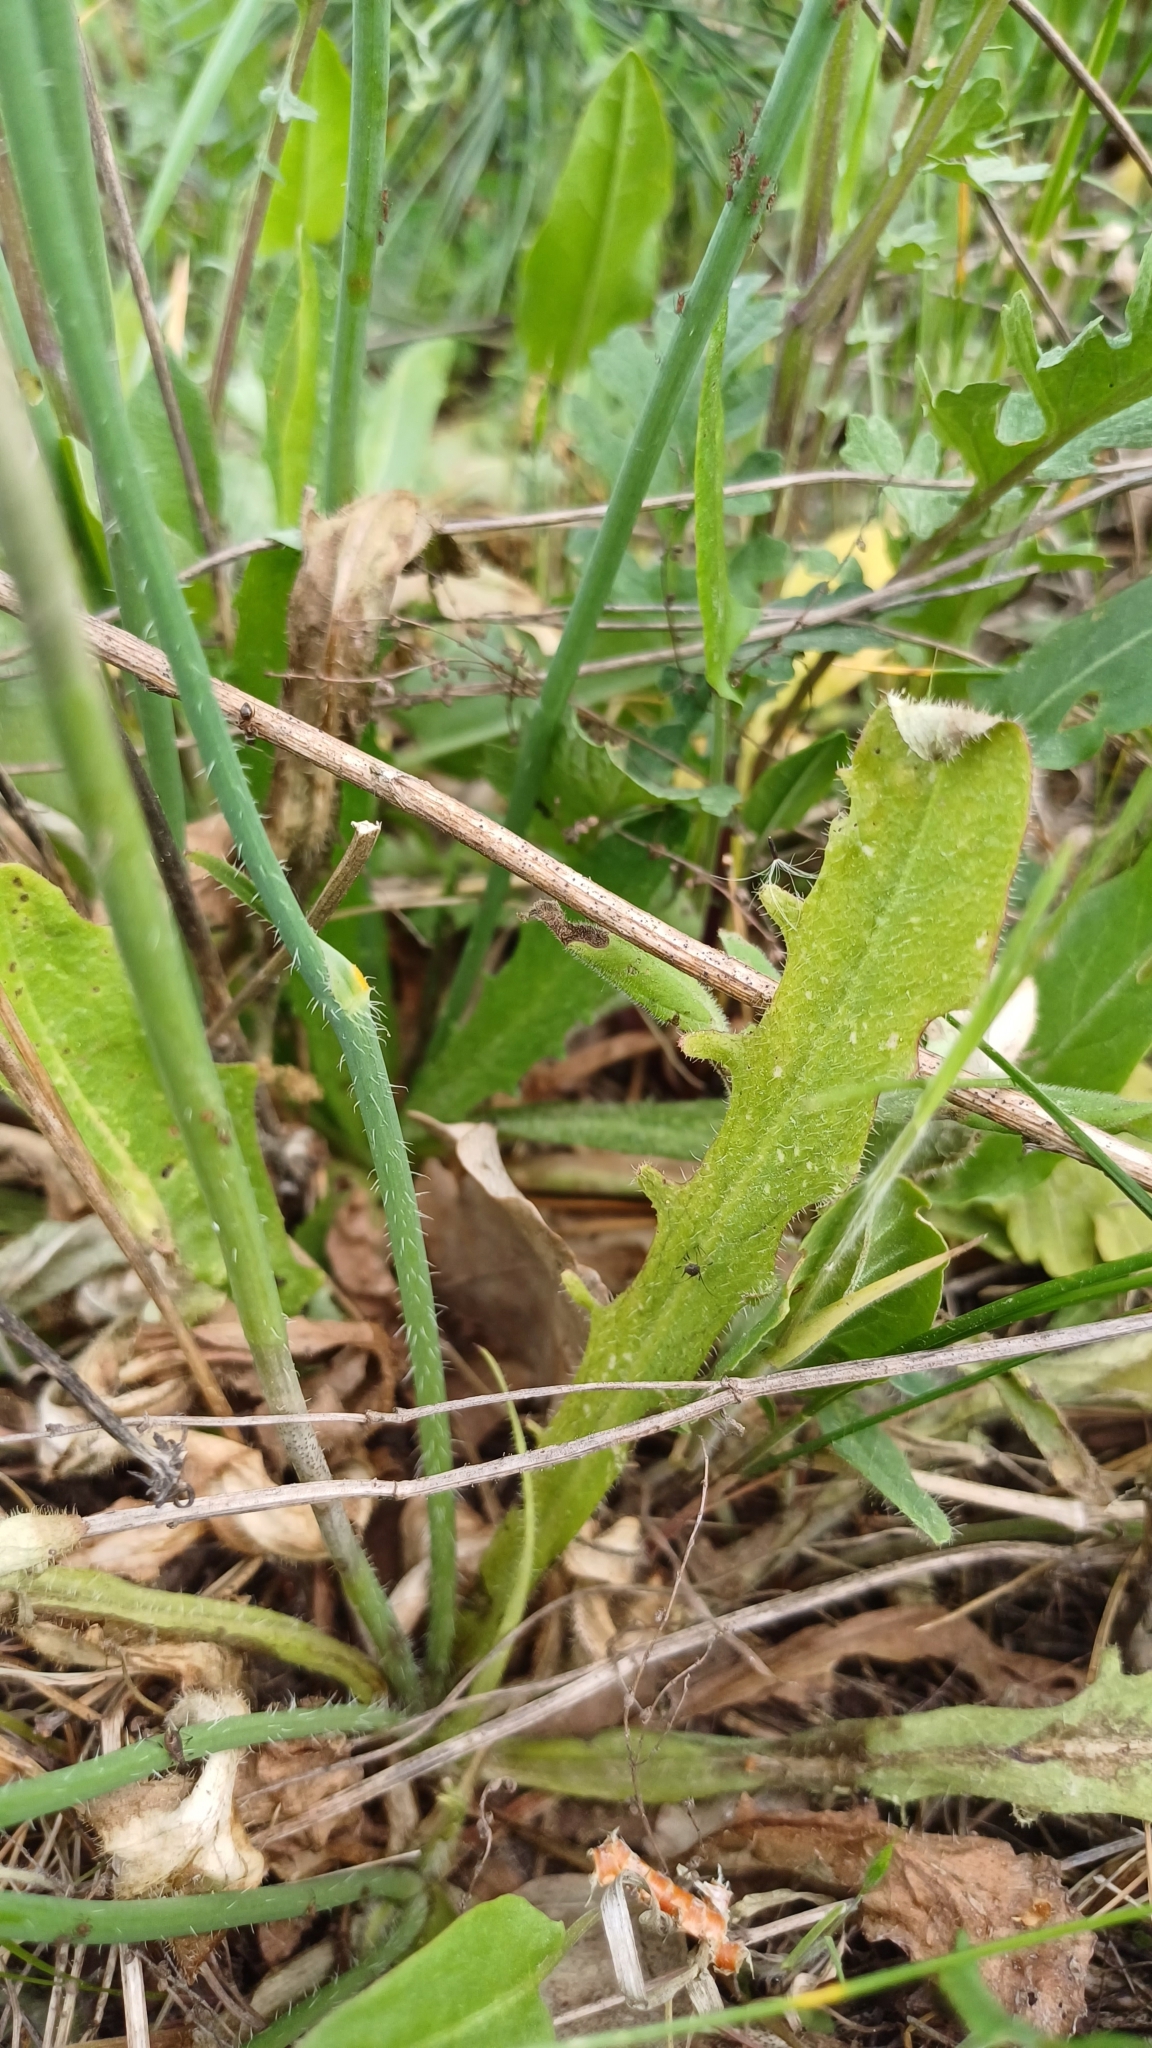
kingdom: Plantae
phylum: Tracheophyta
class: Magnoliopsida
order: Asterales
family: Asteraceae
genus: Hypochaeris
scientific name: Hypochaeris radicata
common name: Flatweed
